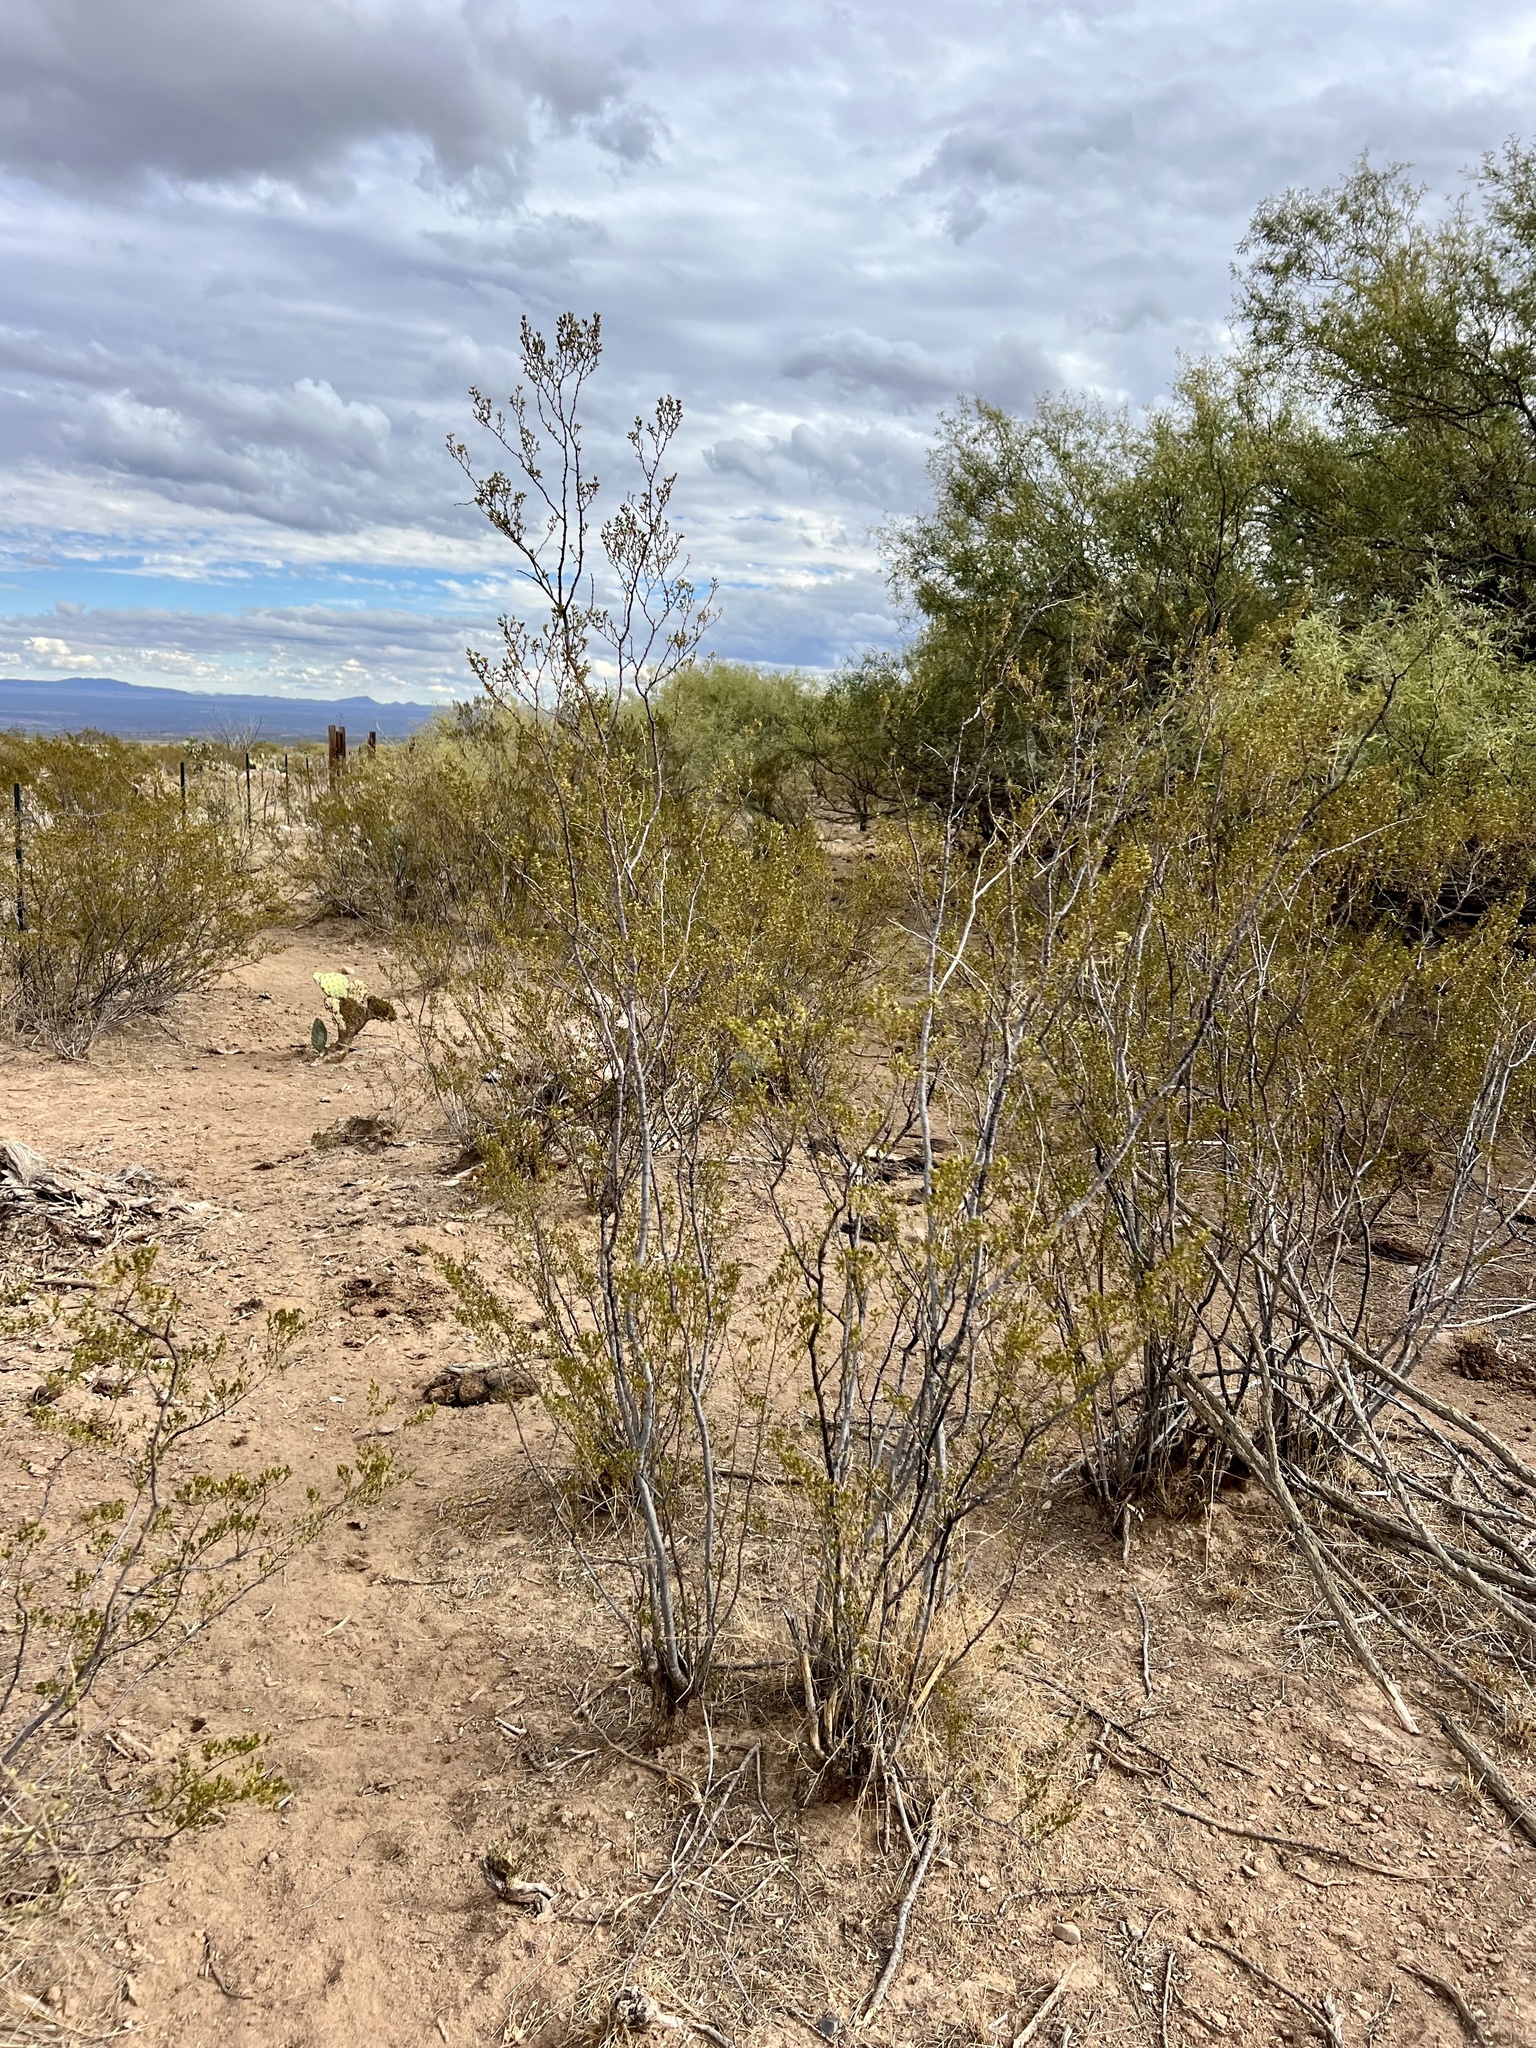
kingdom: Plantae
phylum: Tracheophyta
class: Magnoliopsida
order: Zygophyllales
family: Zygophyllaceae
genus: Larrea
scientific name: Larrea tridentata
